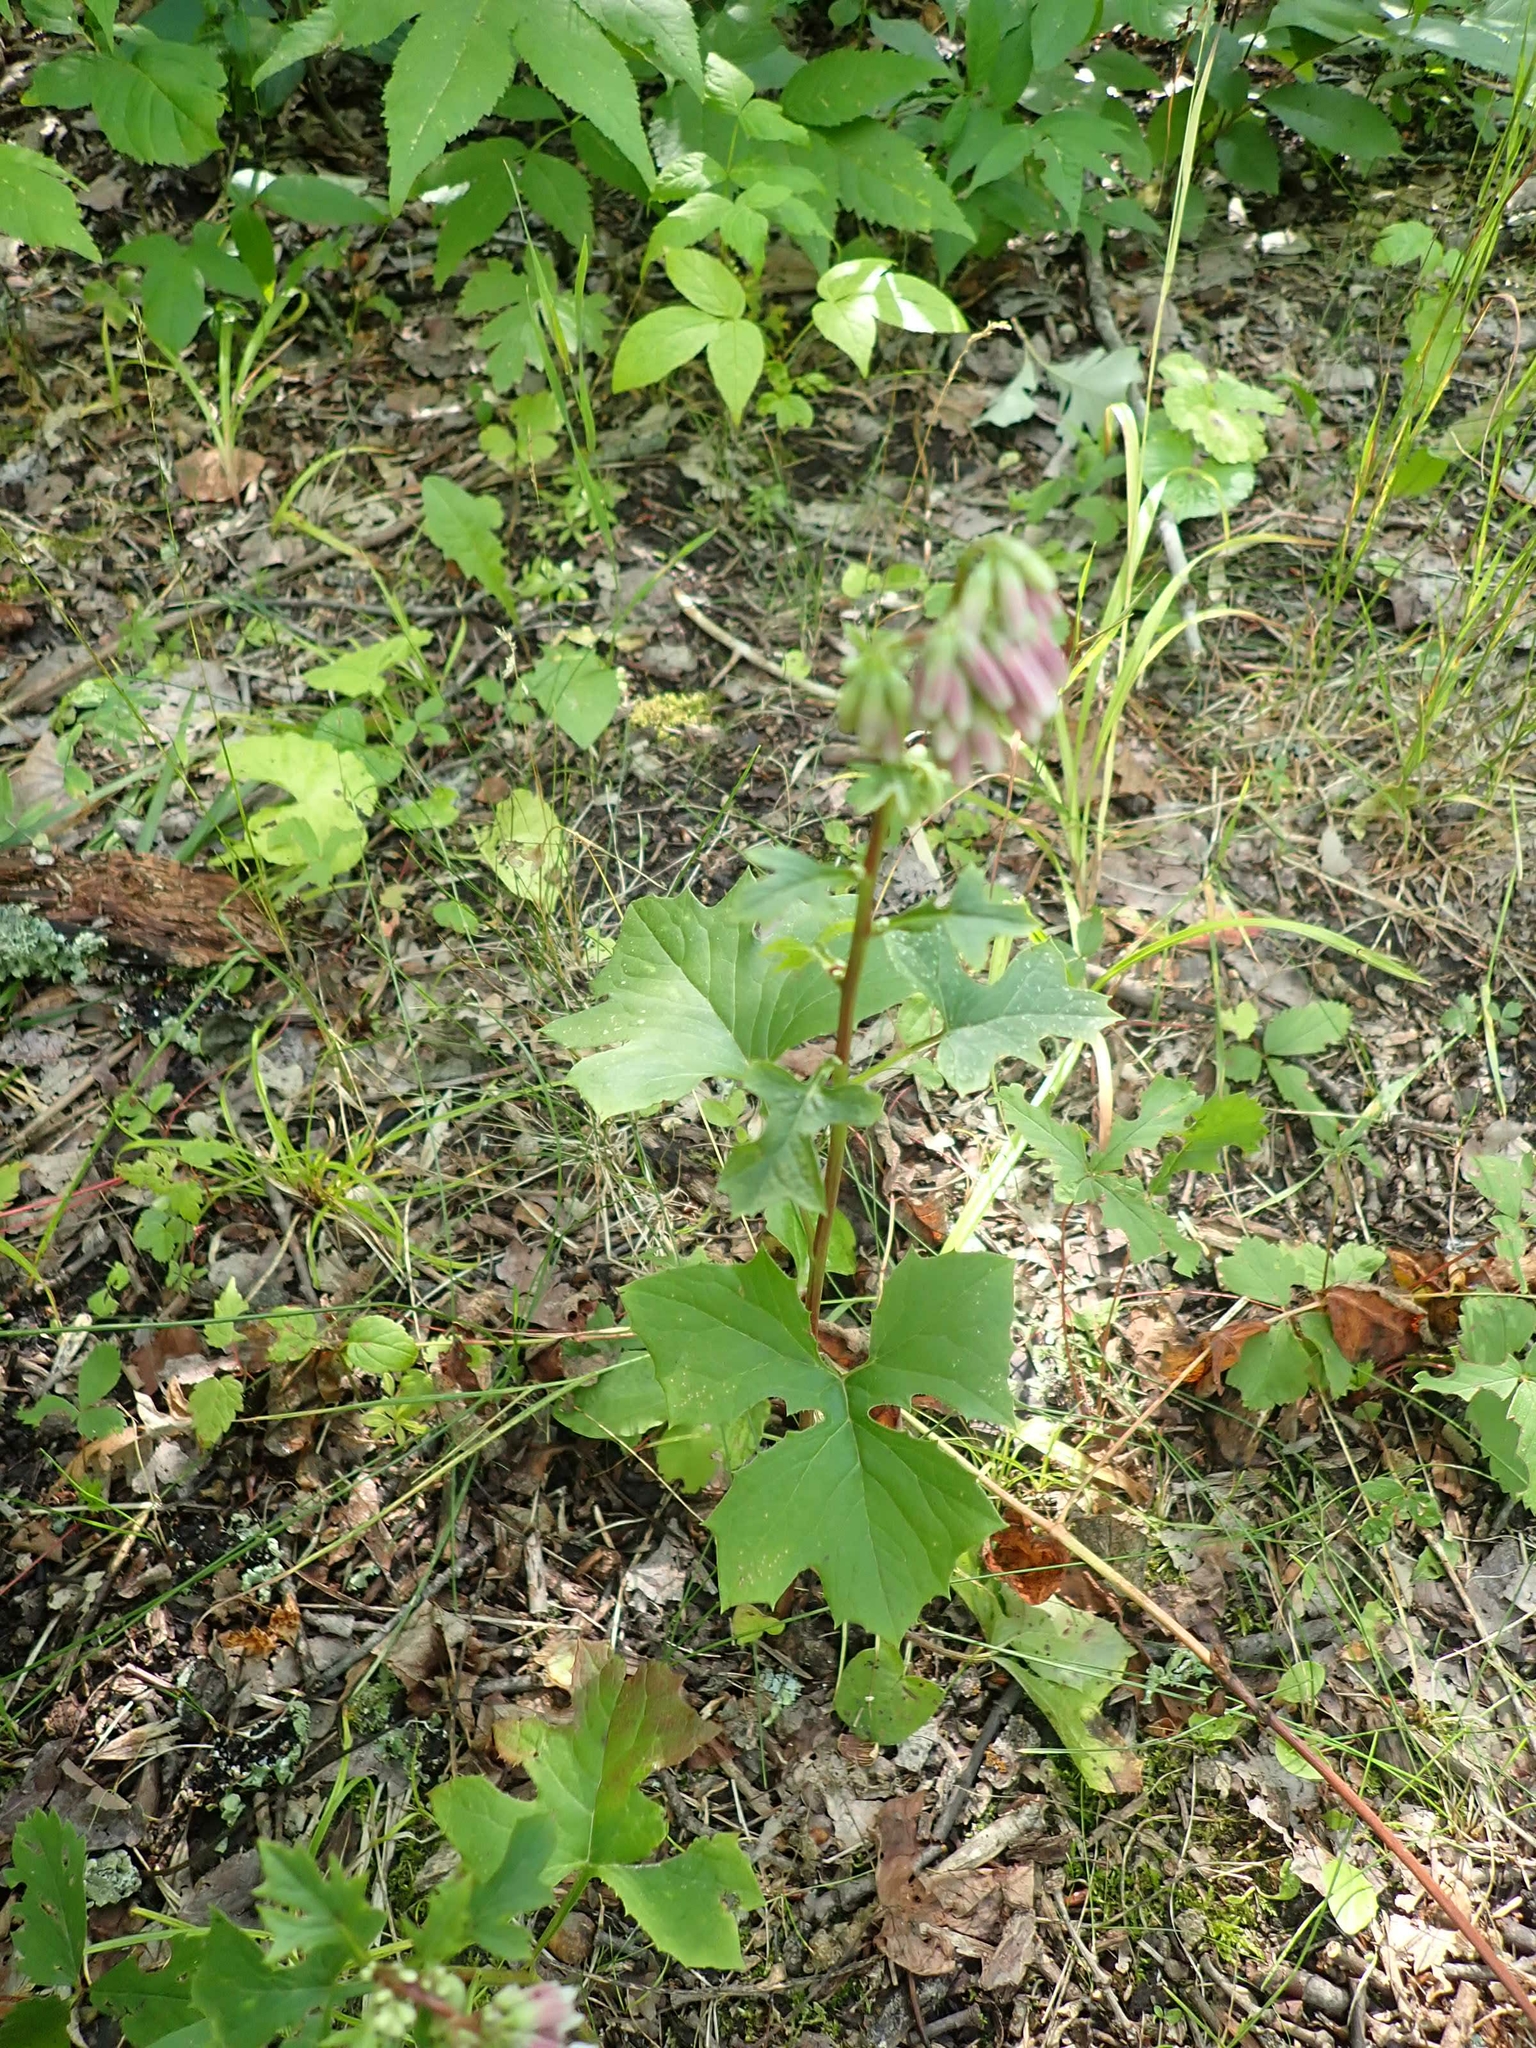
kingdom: Plantae
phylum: Tracheophyta
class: Magnoliopsida
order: Asterales
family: Asteraceae
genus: Nabalus
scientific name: Nabalus albus
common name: White rattlesnakeroot
